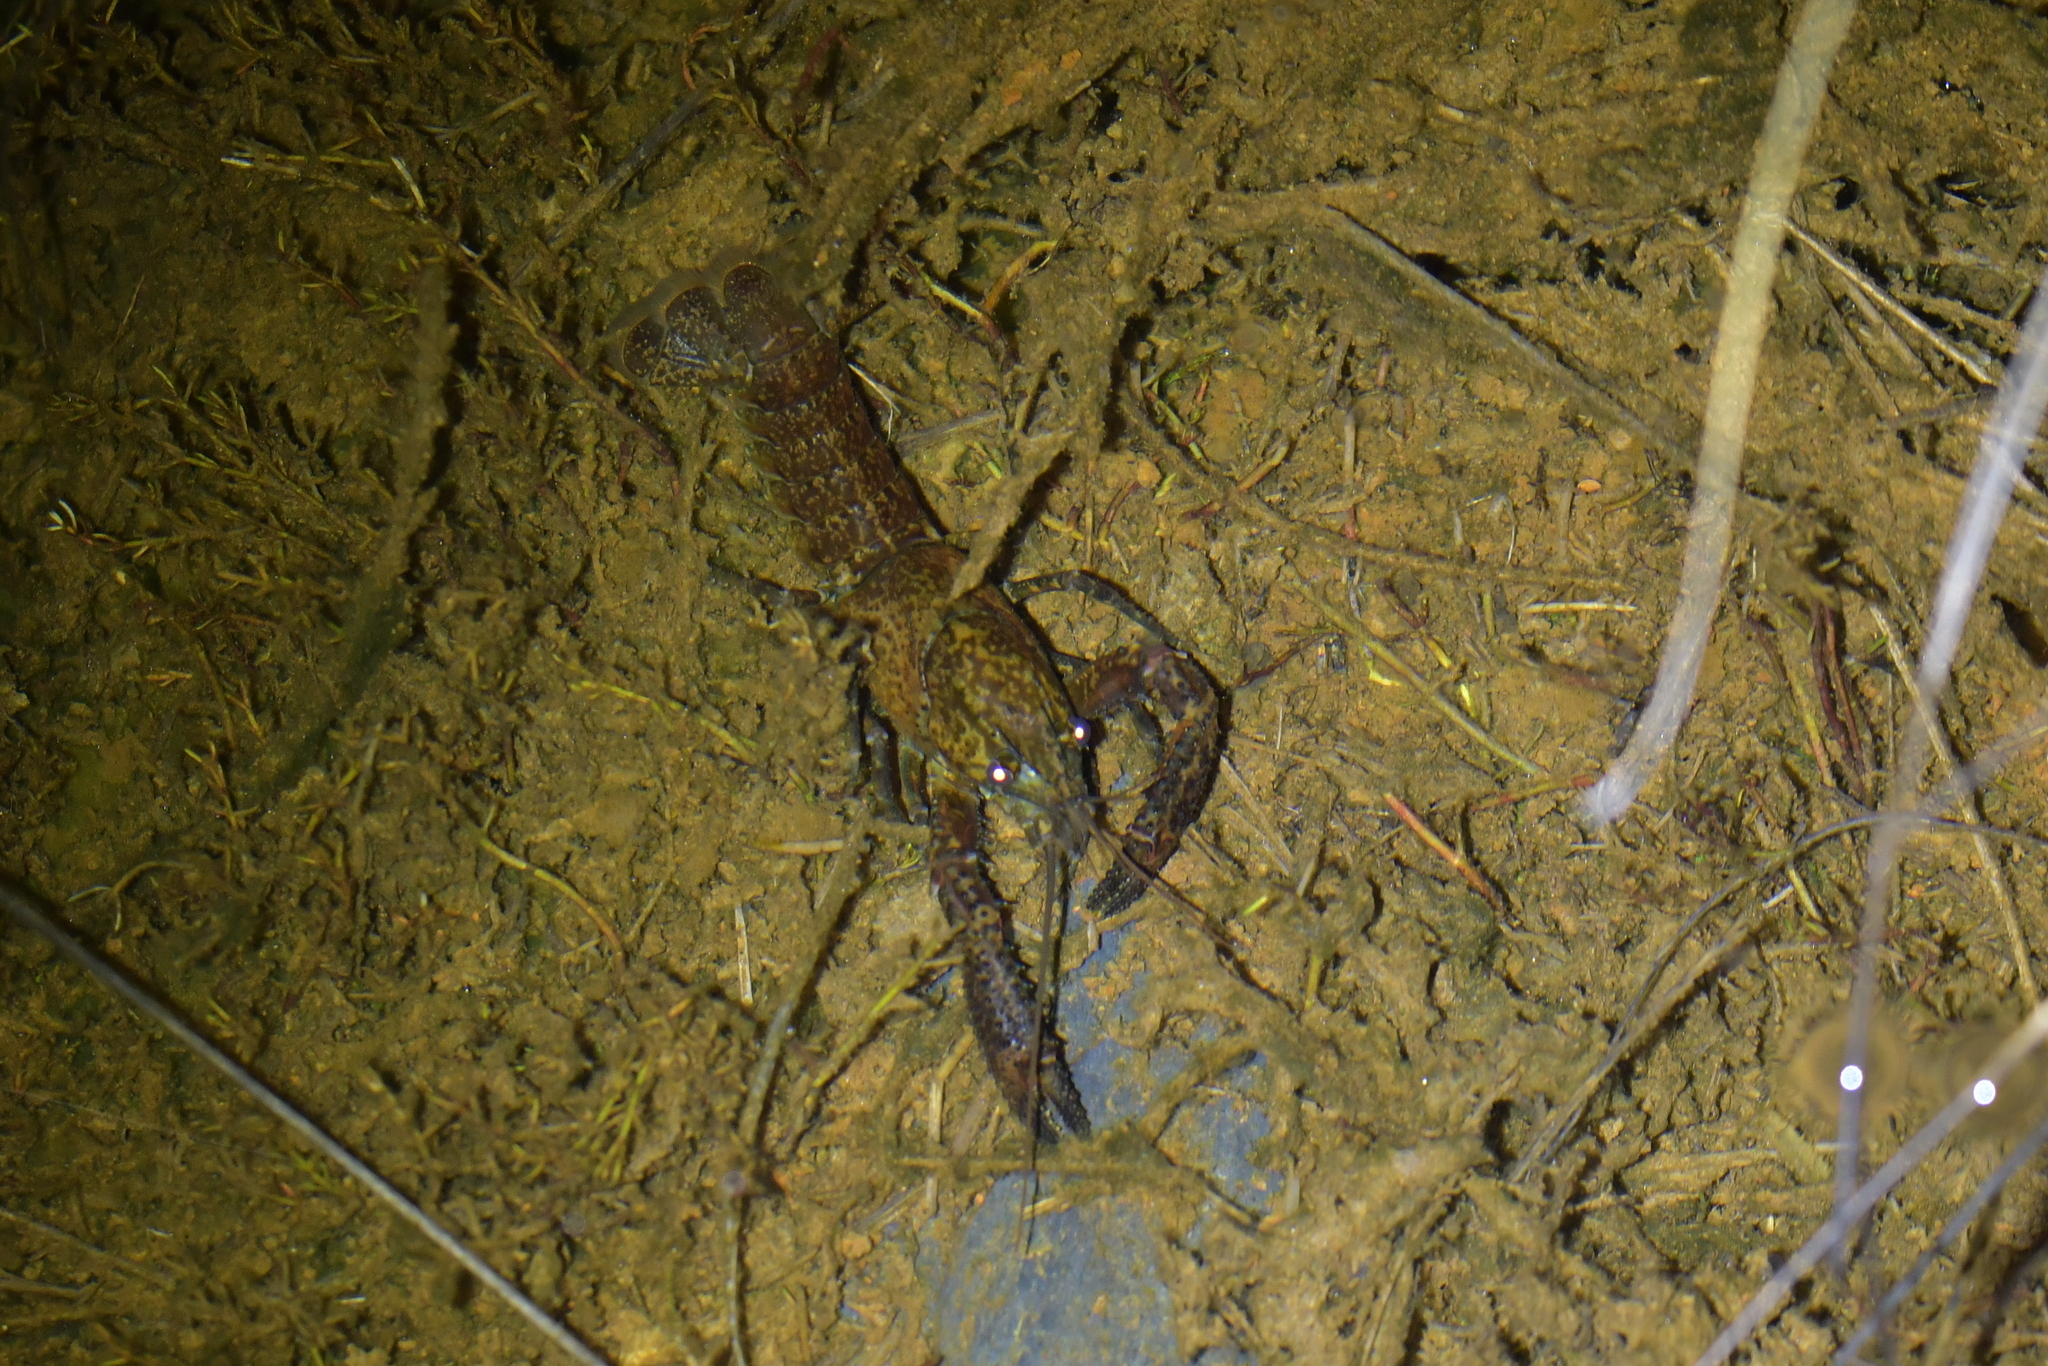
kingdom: Animalia
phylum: Arthropoda
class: Malacostraca
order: Decapoda
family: Parastacidae
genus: Paranephrops
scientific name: Paranephrops planifrons
